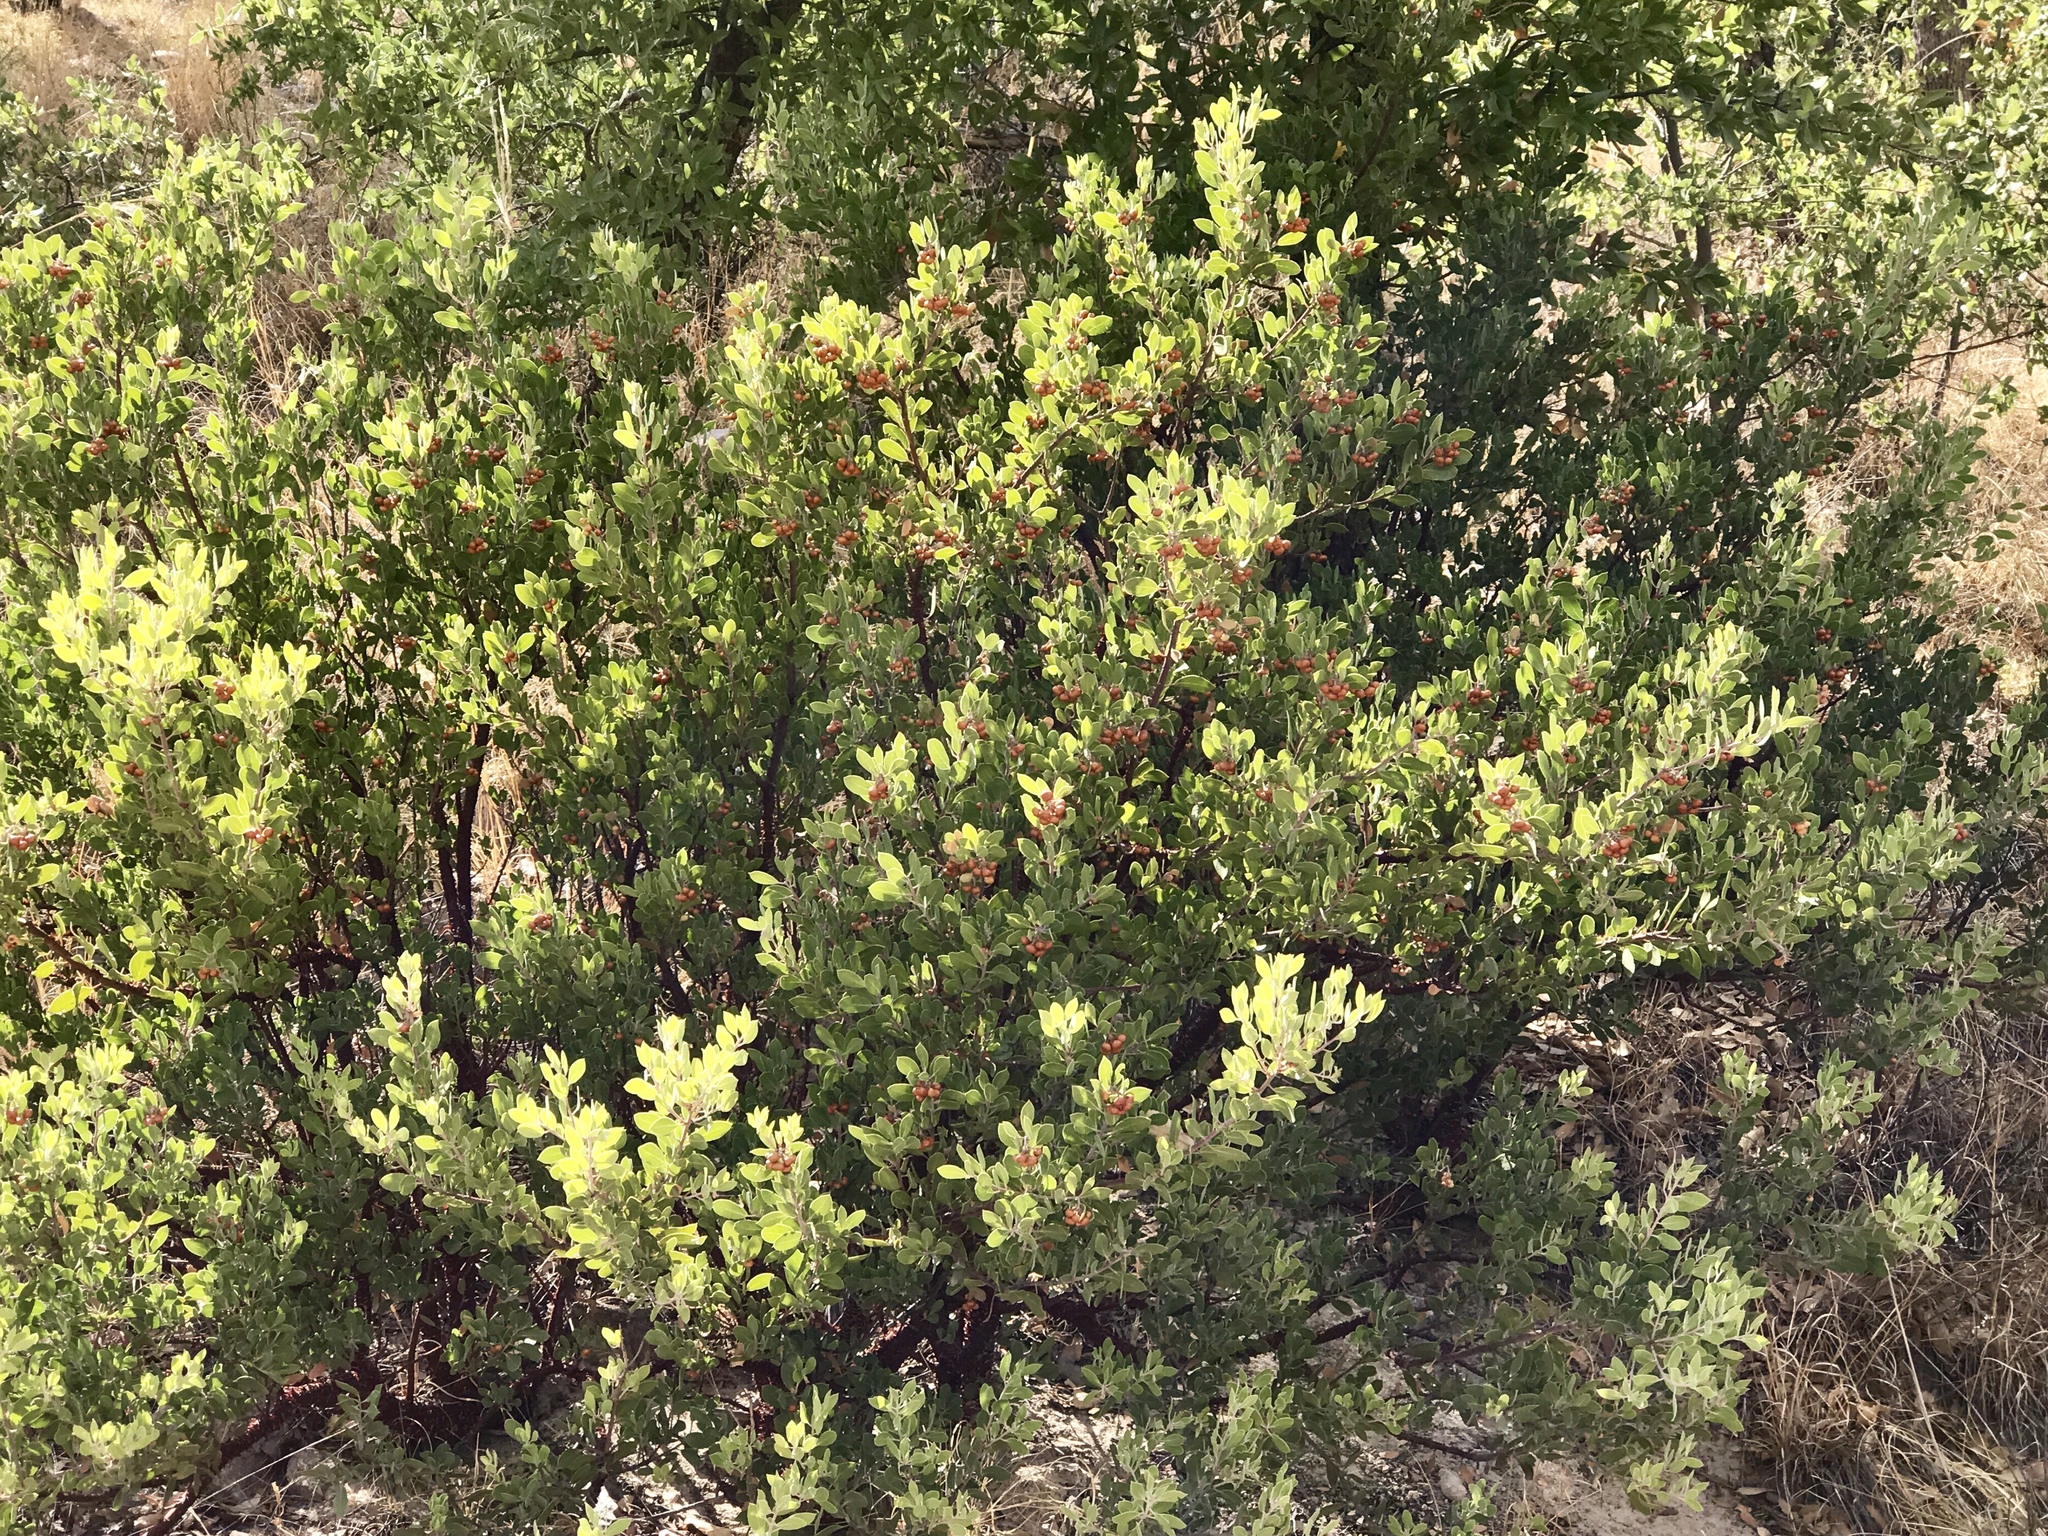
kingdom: Plantae
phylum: Tracheophyta
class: Magnoliopsida
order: Ericales
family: Ericaceae
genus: Arctostaphylos
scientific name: Arctostaphylos pungens
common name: Mexican manzanita
